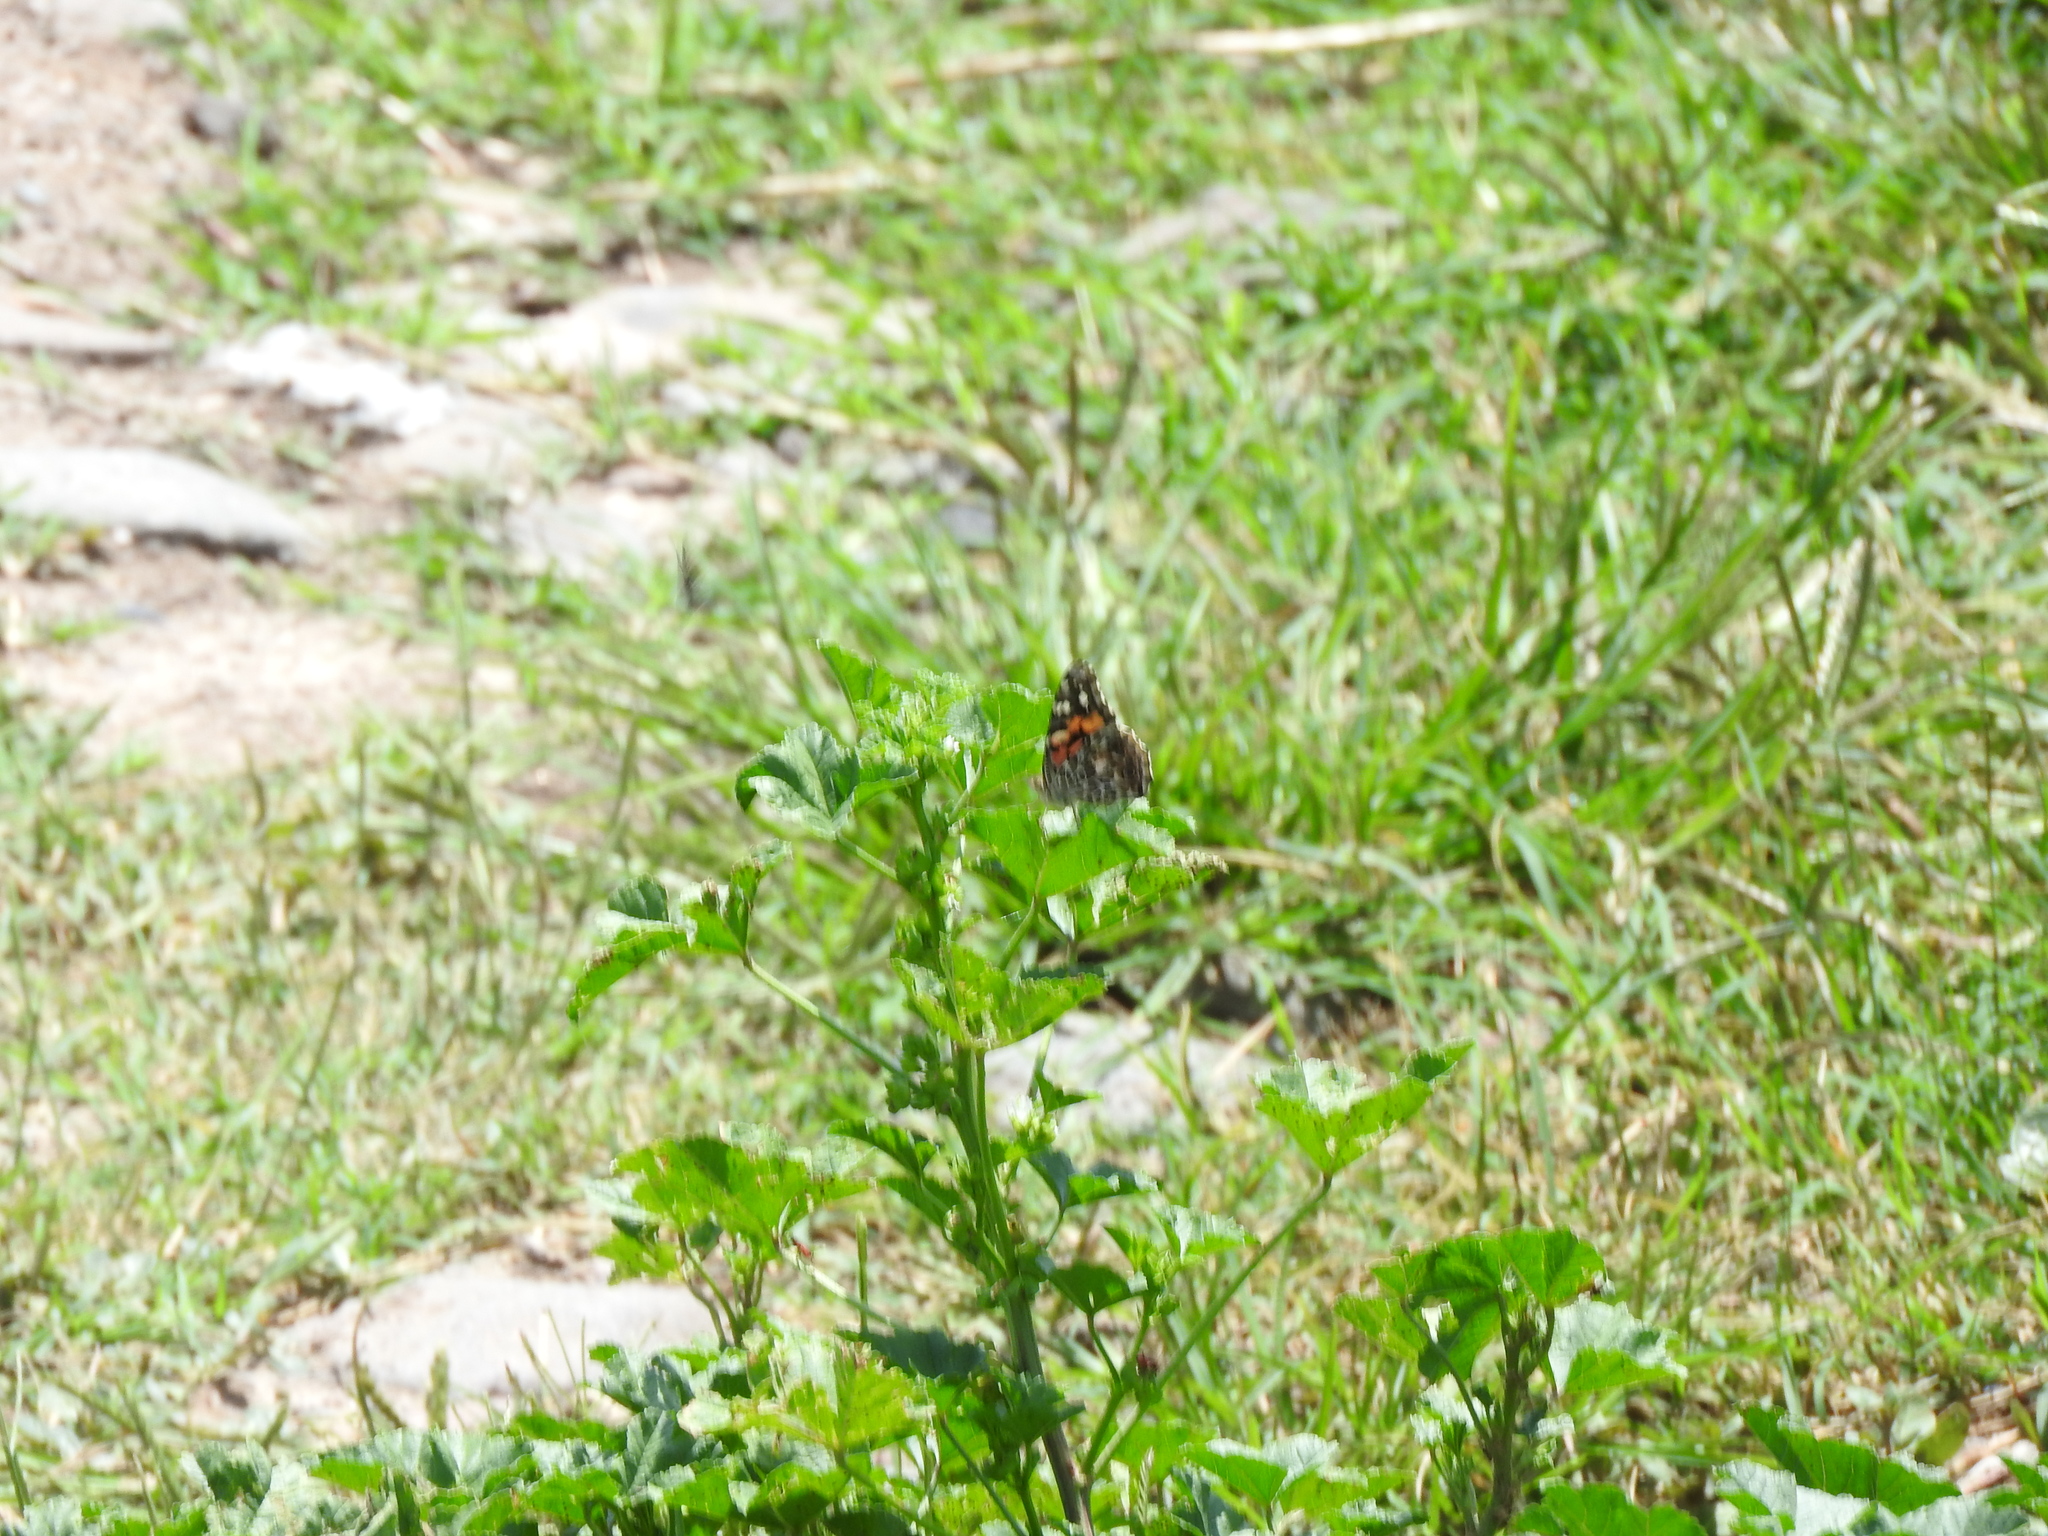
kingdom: Animalia
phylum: Arthropoda
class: Insecta
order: Lepidoptera
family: Nymphalidae
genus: Vanessa
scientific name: Vanessa cardui
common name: Painted lady
